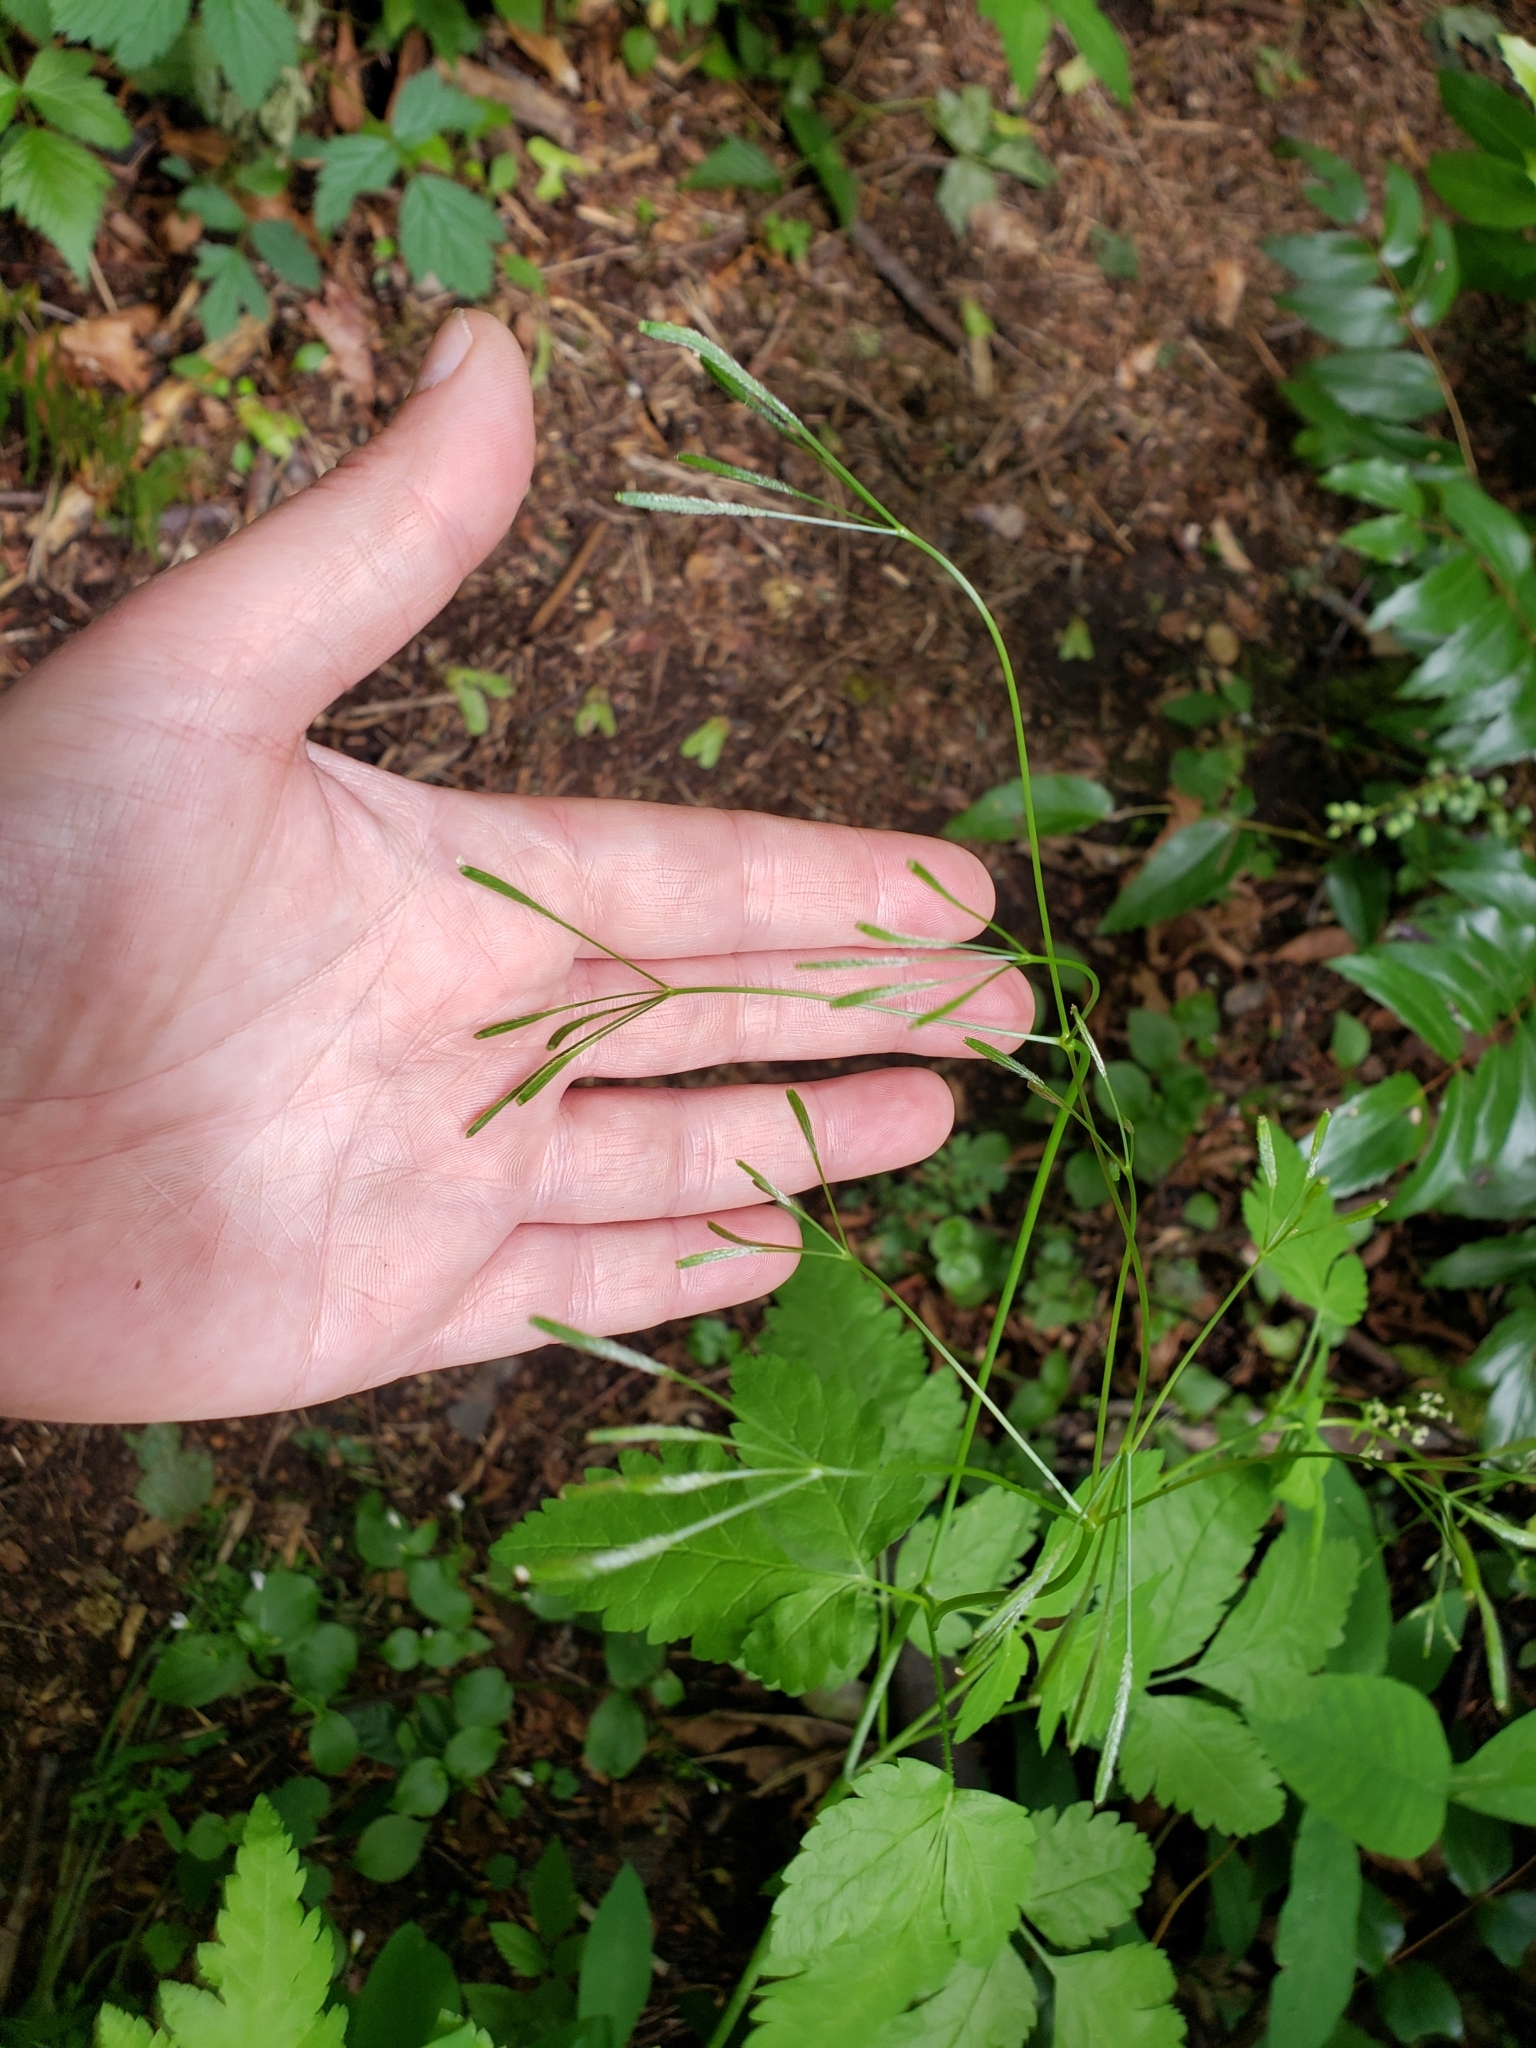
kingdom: Plantae
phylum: Tracheophyta
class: Magnoliopsida
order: Apiales
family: Apiaceae
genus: Osmorhiza
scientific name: Osmorhiza berteroi
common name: Mountain sweet cicely
